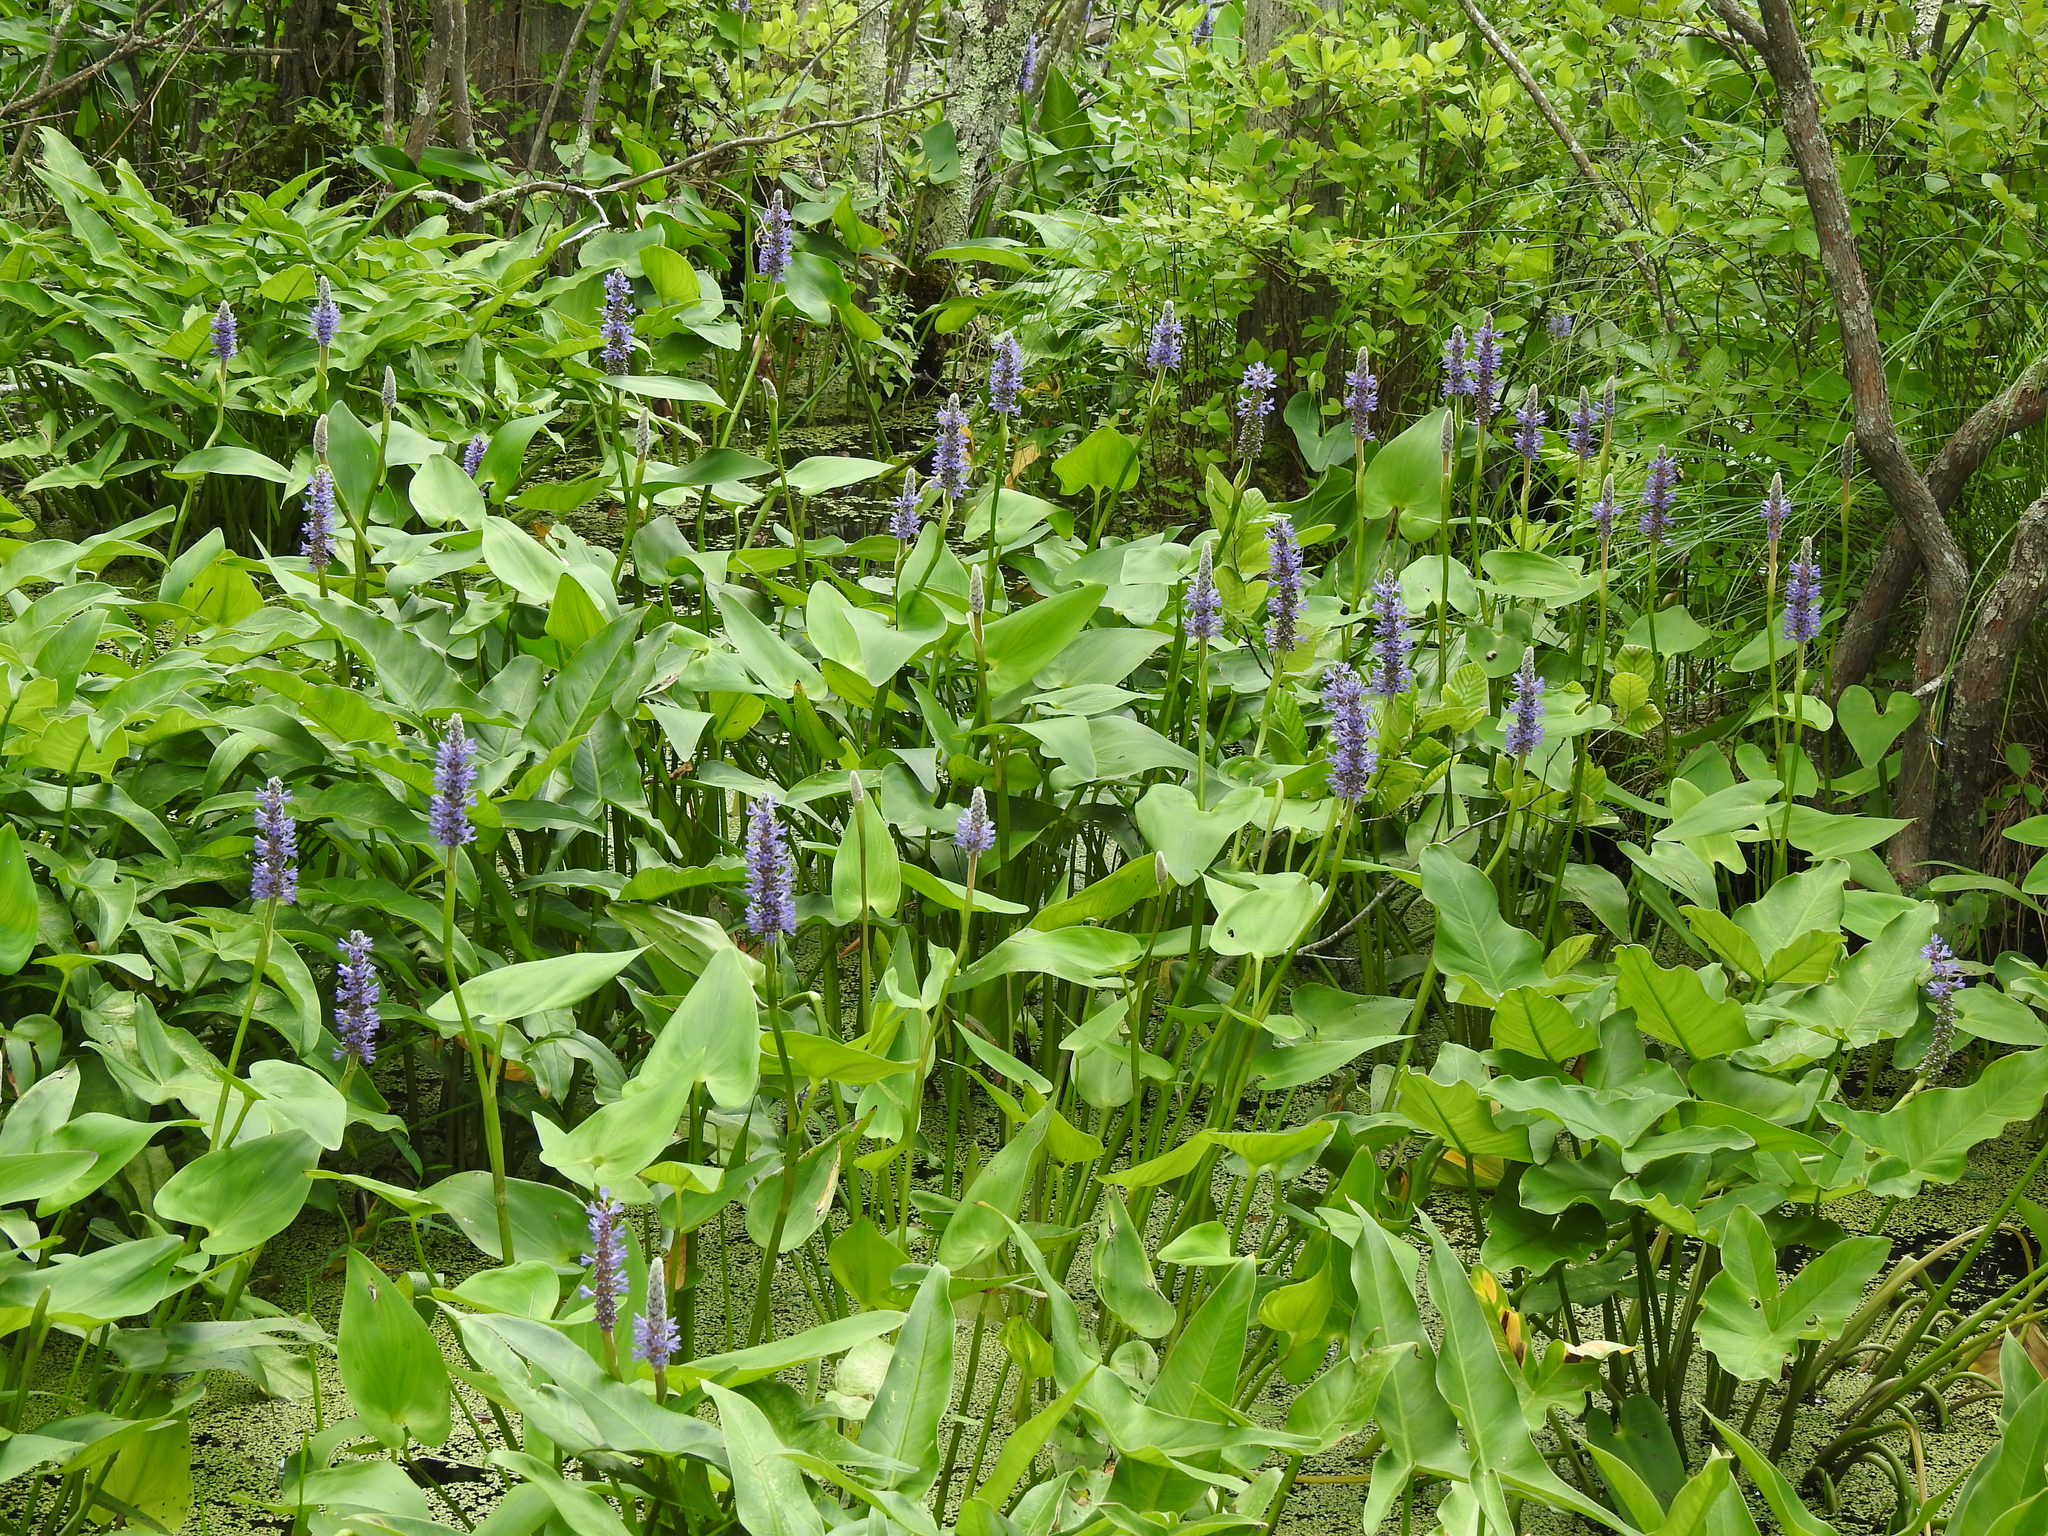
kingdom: Plantae
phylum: Tracheophyta
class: Liliopsida
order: Commelinales
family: Pontederiaceae
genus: Pontederia
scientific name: Pontederia cordata
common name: Pickerelweed
